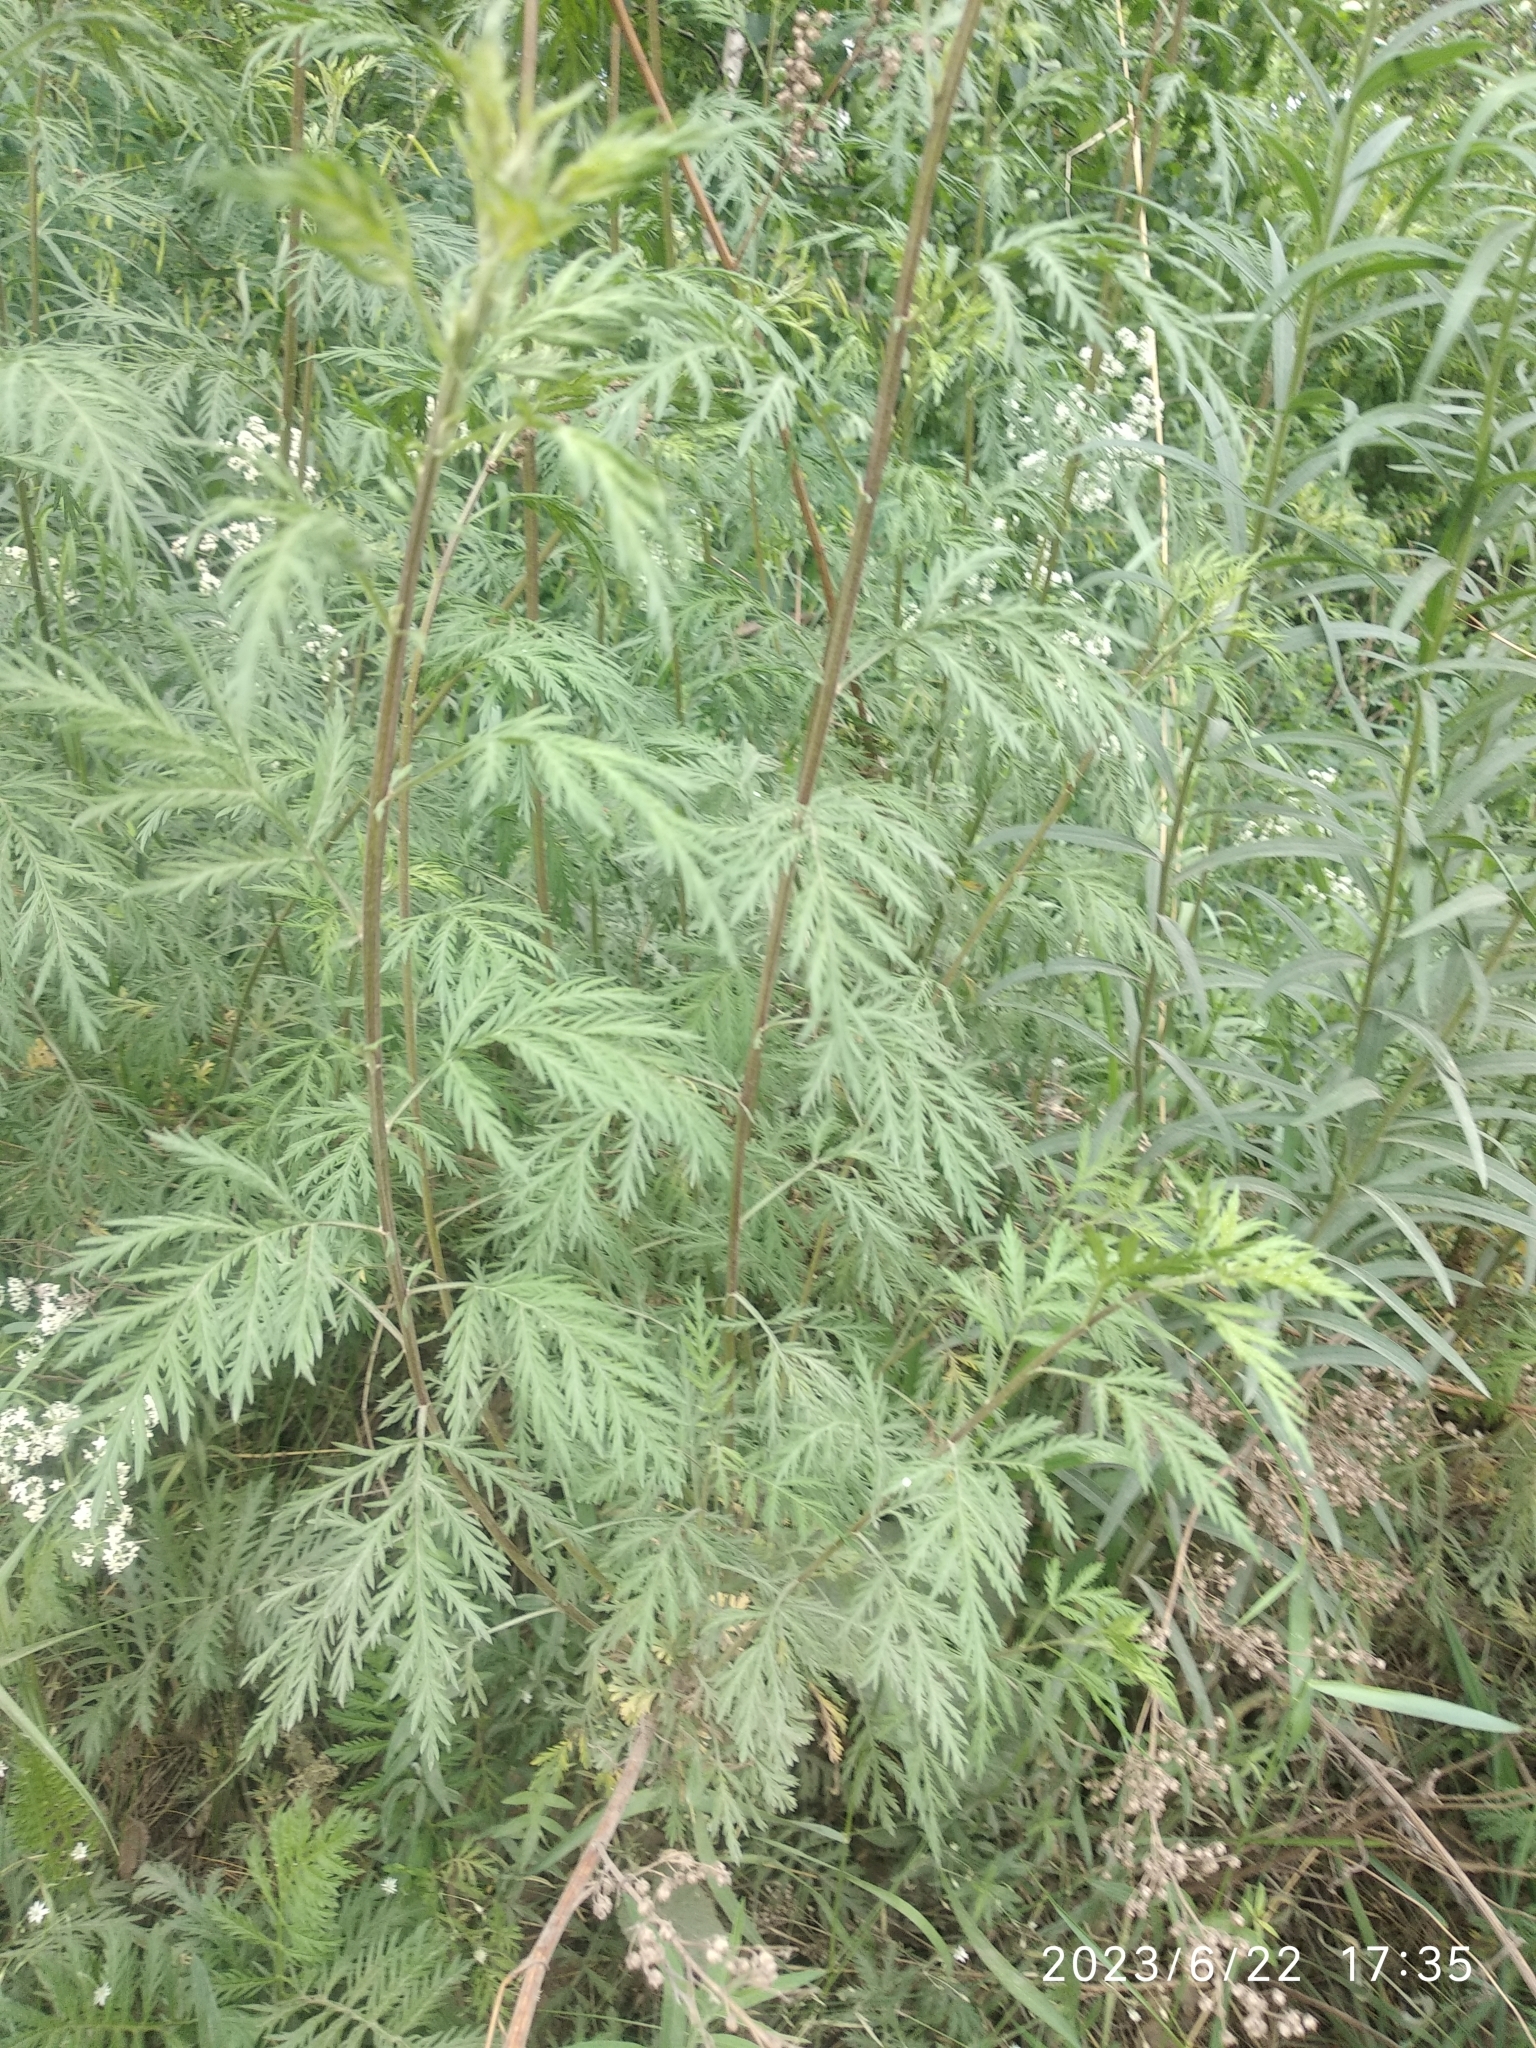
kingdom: Plantae
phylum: Tracheophyta
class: Magnoliopsida
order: Asterales
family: Asteraceae
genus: Artemisia
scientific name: Artemisia gmelinii
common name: Gmelin's wormwood
